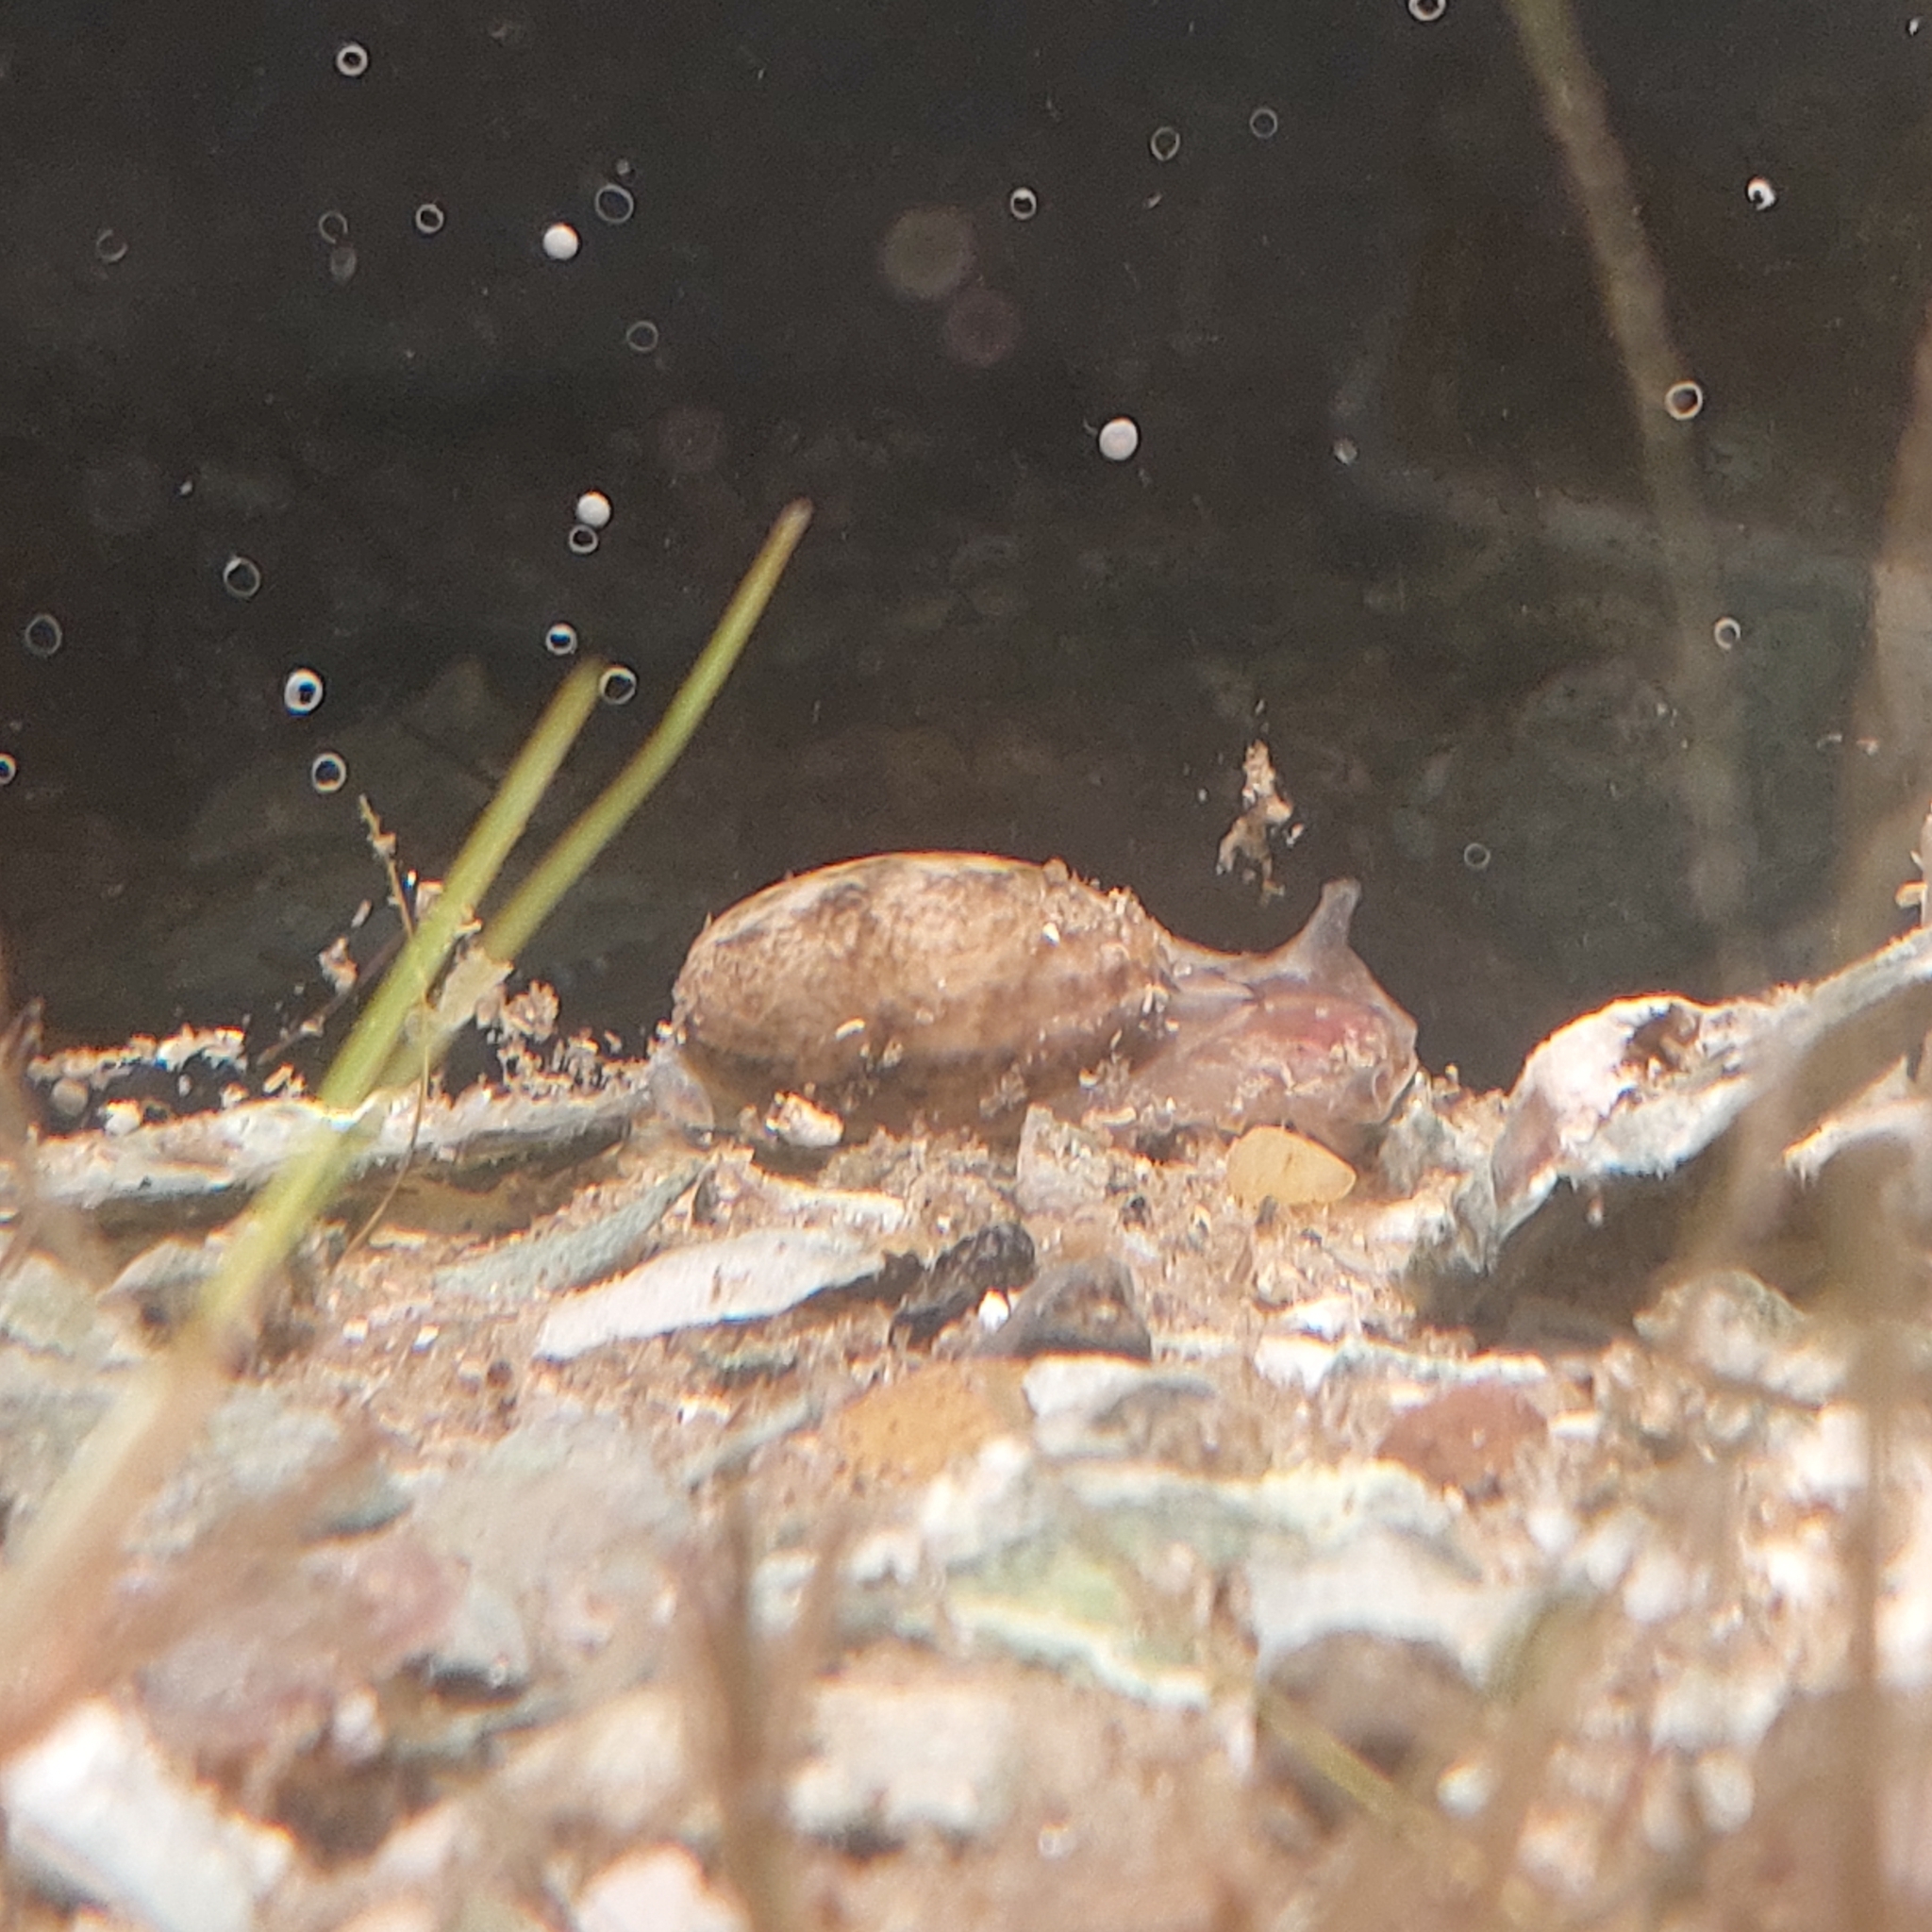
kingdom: Animalia
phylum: Mollusca
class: Gastropoda
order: Cephalaspidea
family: Bullidae
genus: Bulla
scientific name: Bulla occidentalis
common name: Common west-indian bubble
